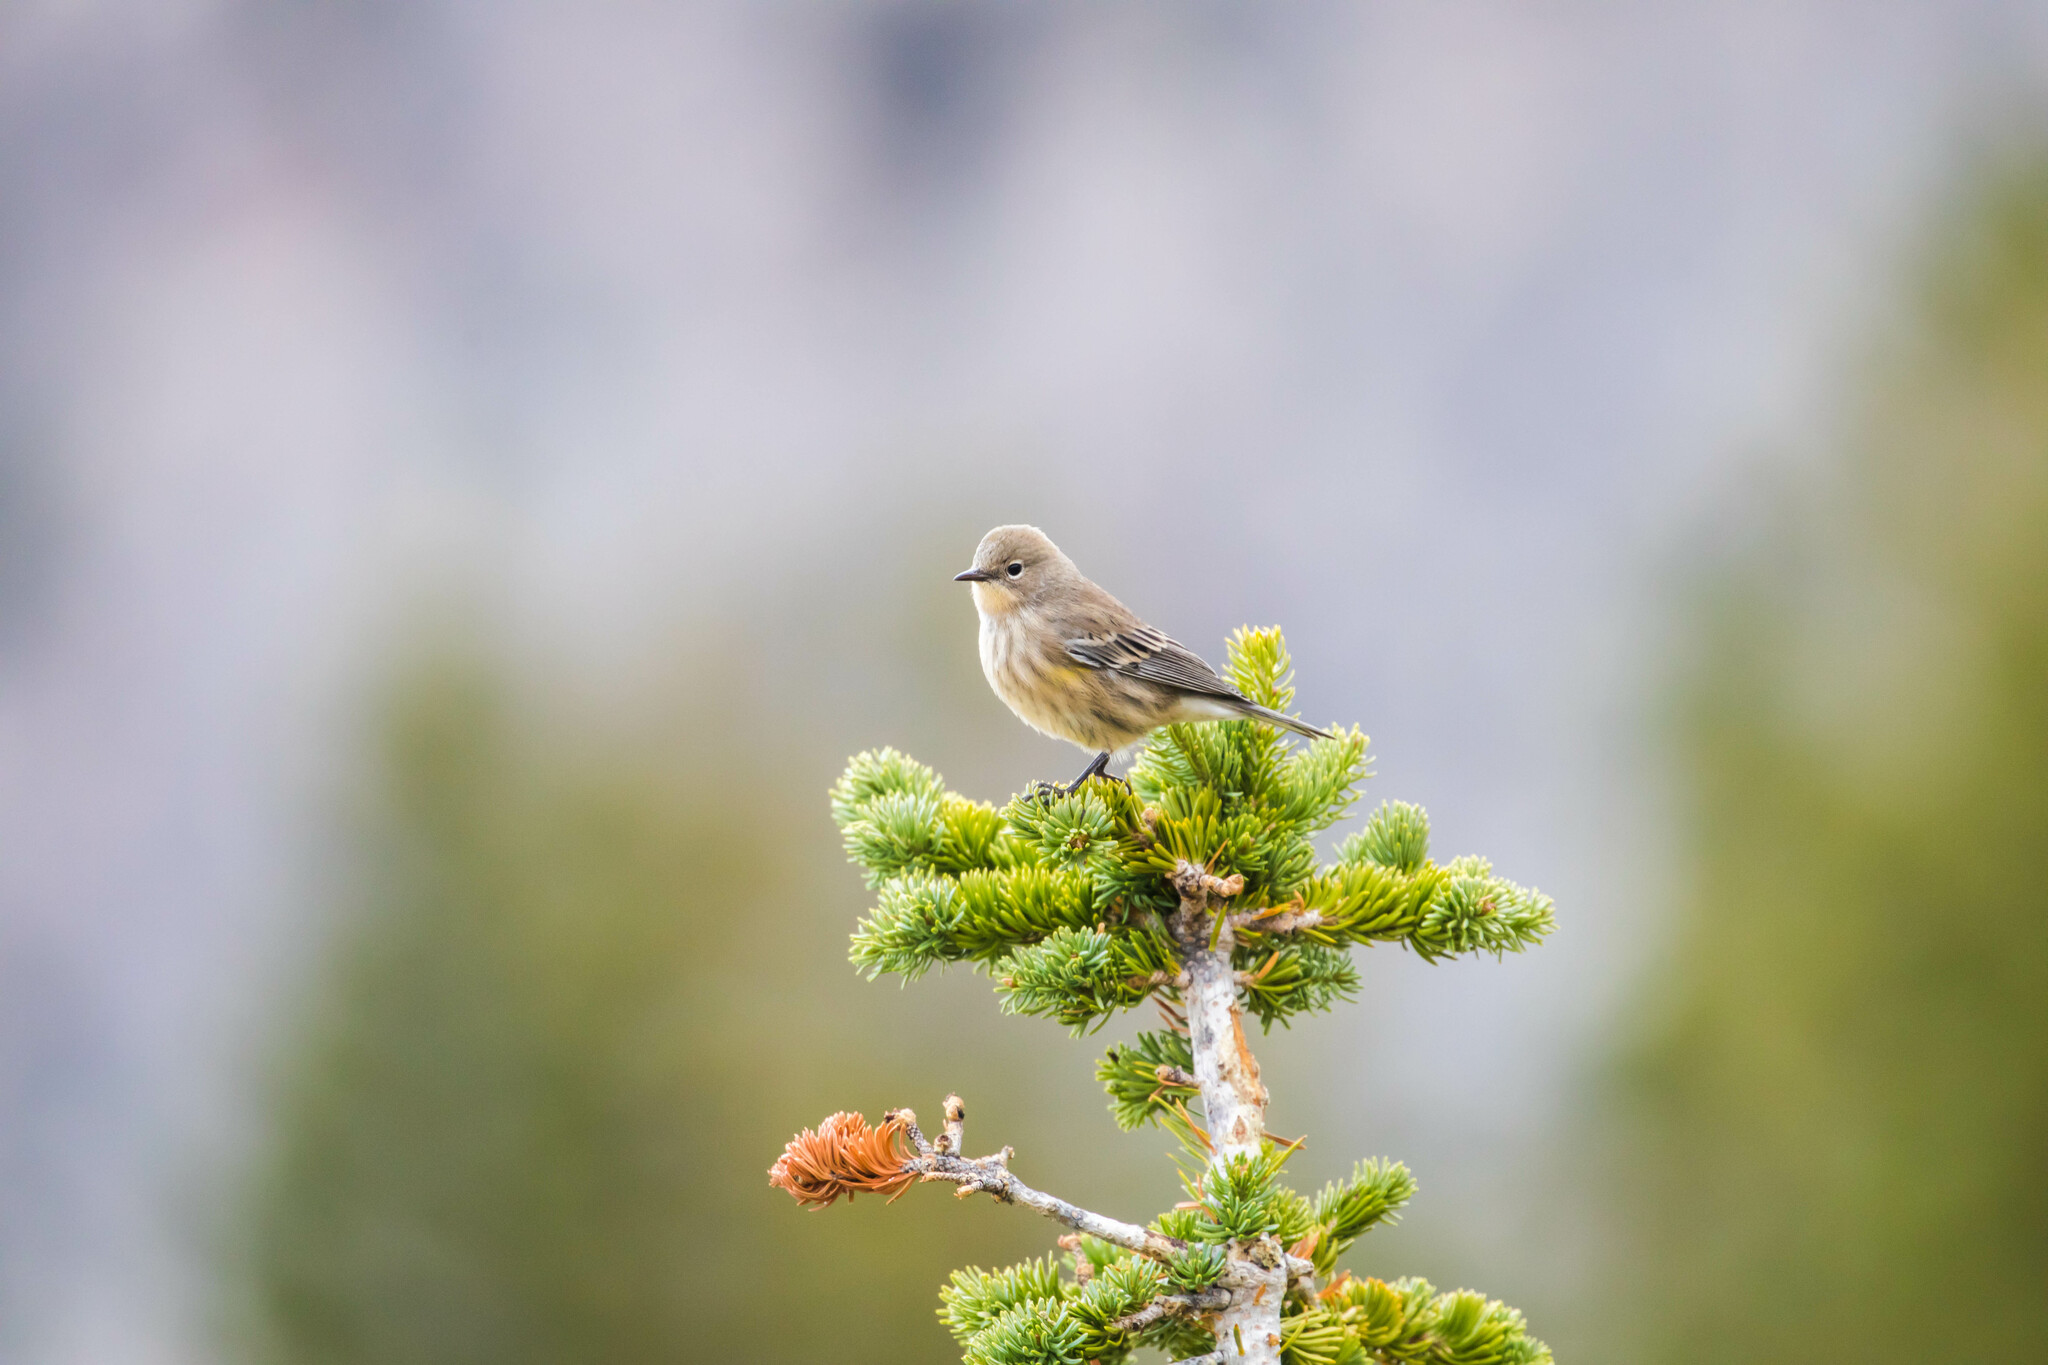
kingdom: Animalia
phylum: Chordata
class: Aves
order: Passeriformes
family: Parulidae
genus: Setophaga
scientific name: Setophaga coronata
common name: Myrtle warbler
